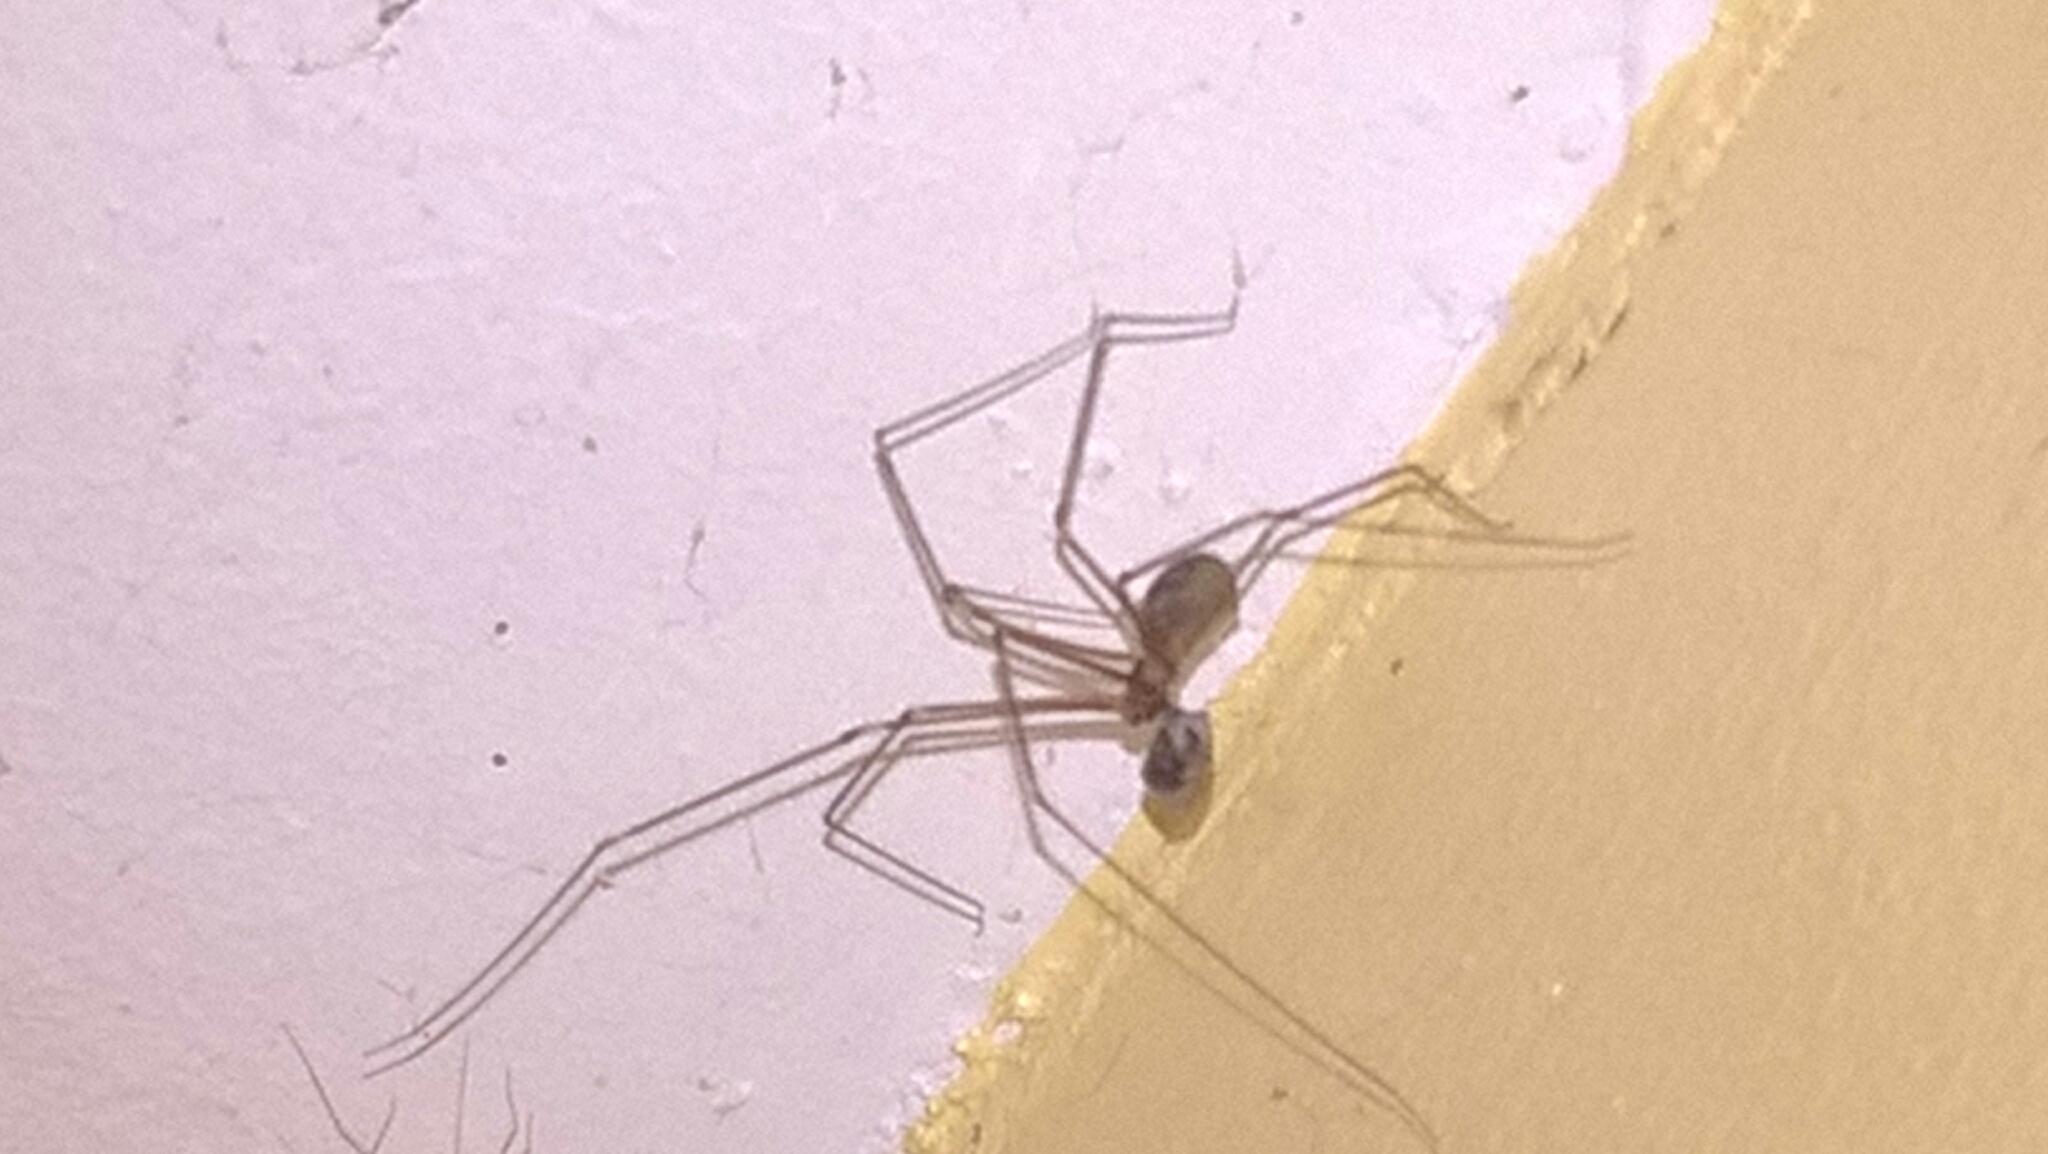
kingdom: Animalia
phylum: Arthropoda
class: Arachnida
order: Araneae
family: Pholcidae
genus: Pholcus
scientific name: Pholcus phalangioides
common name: Longbodied cellar spider
